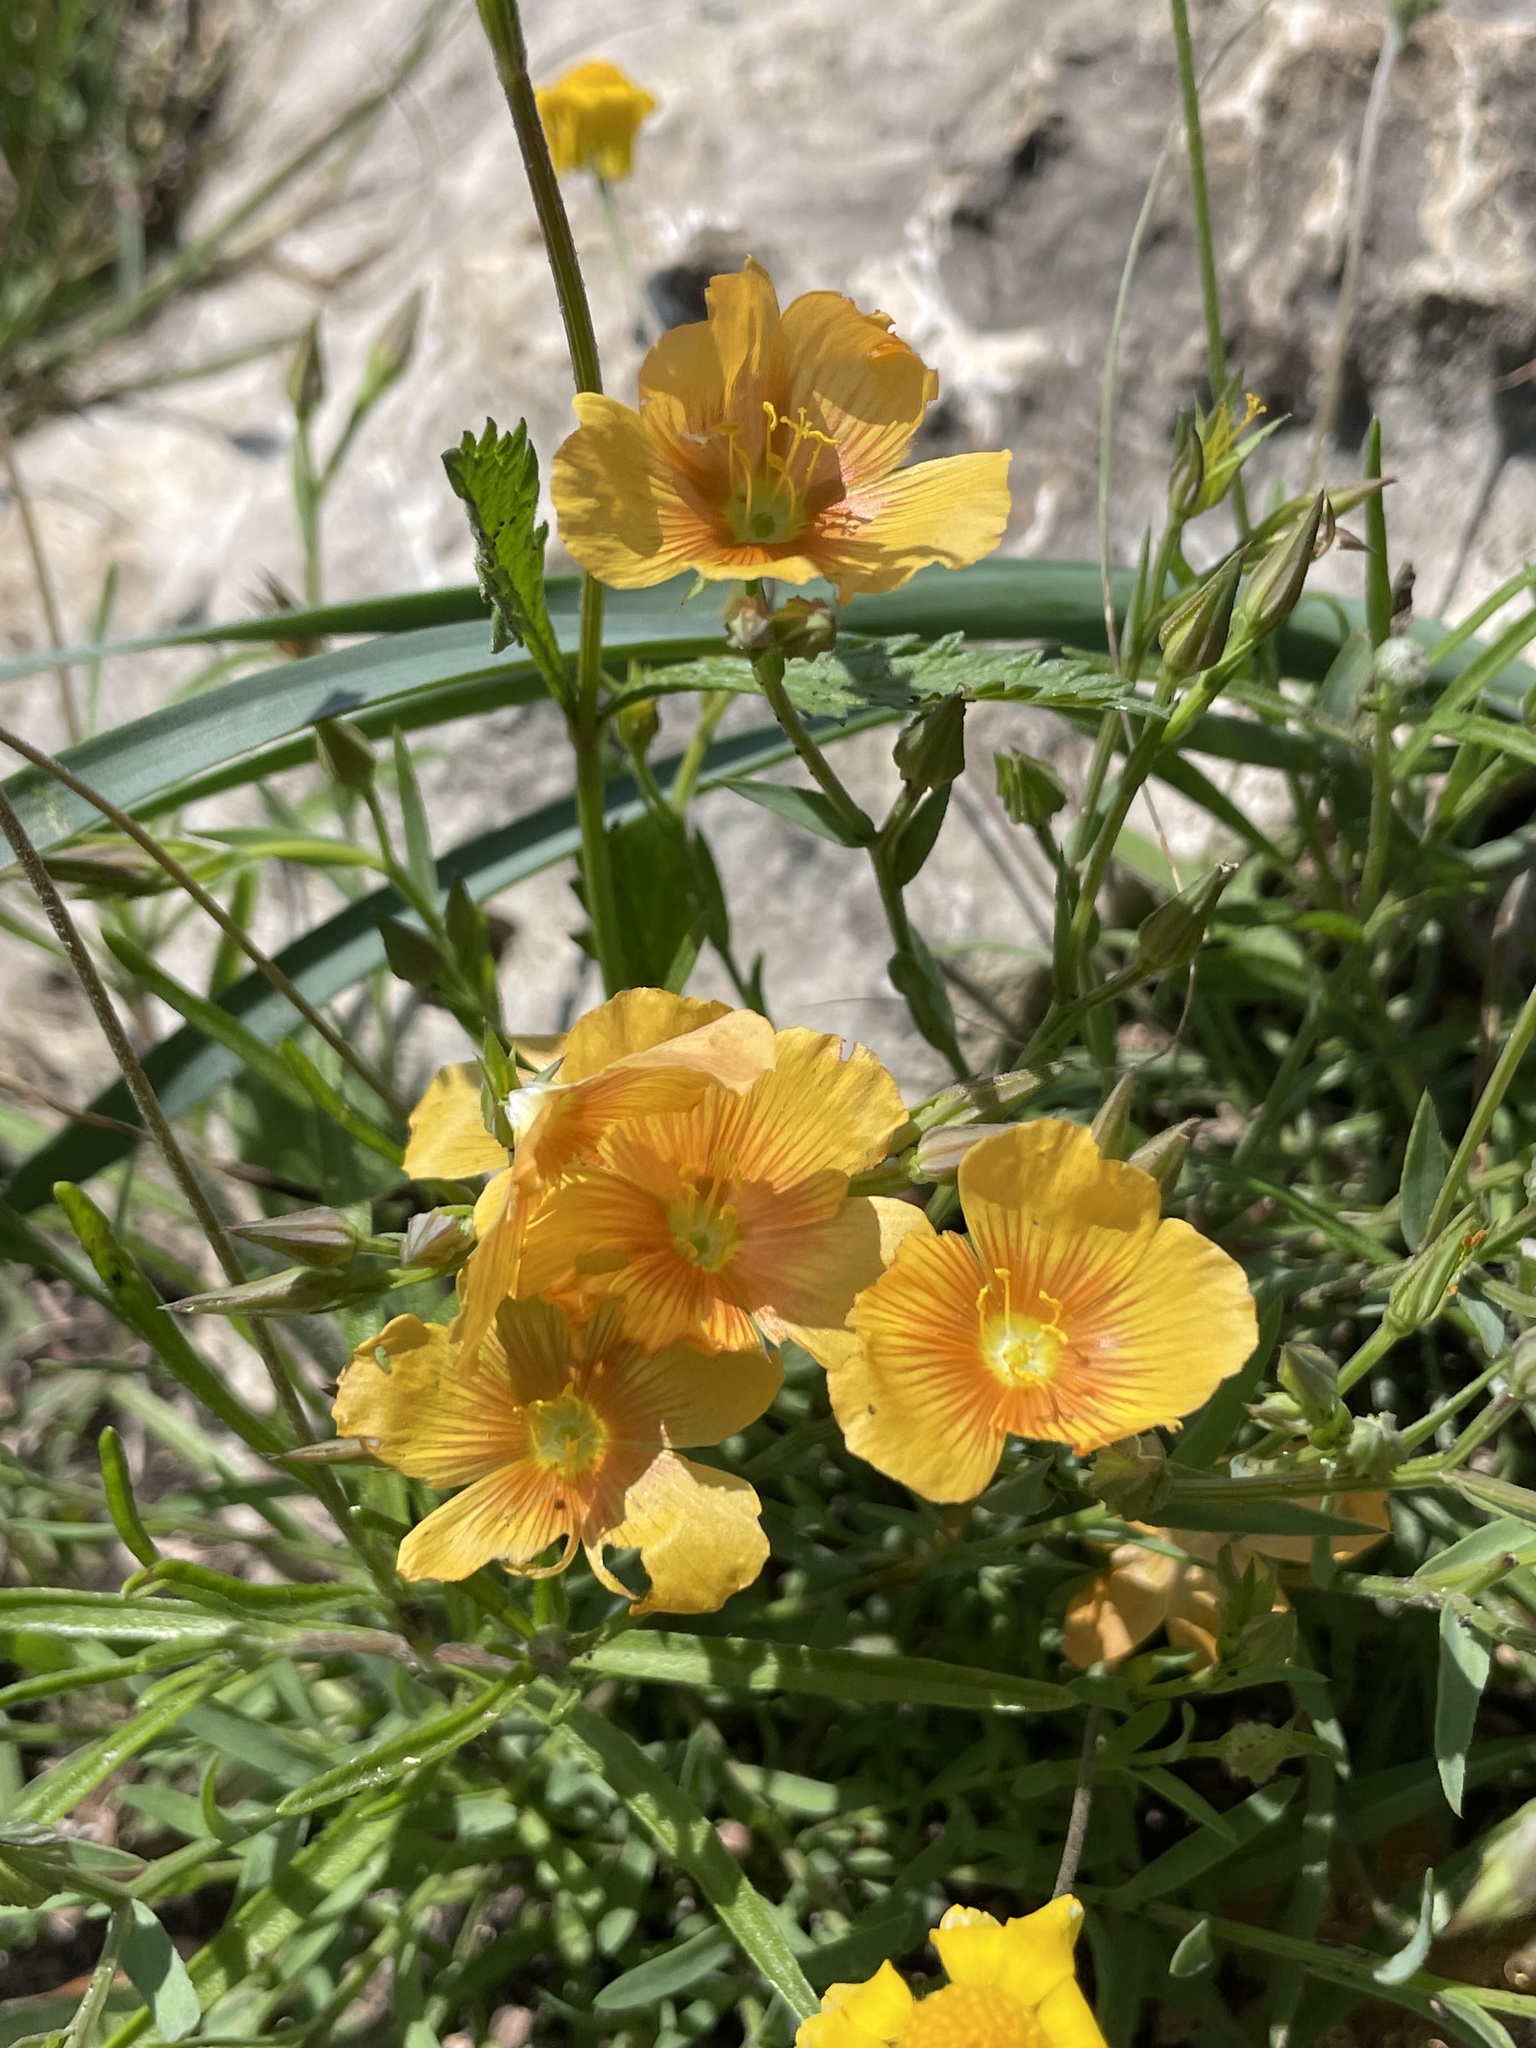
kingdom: Plantae
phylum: Tracheophyta
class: Magnoliopsida
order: Malpighiales
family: Linaceae
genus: Linum
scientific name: Linum rigidum
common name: Stiff-stem flax
